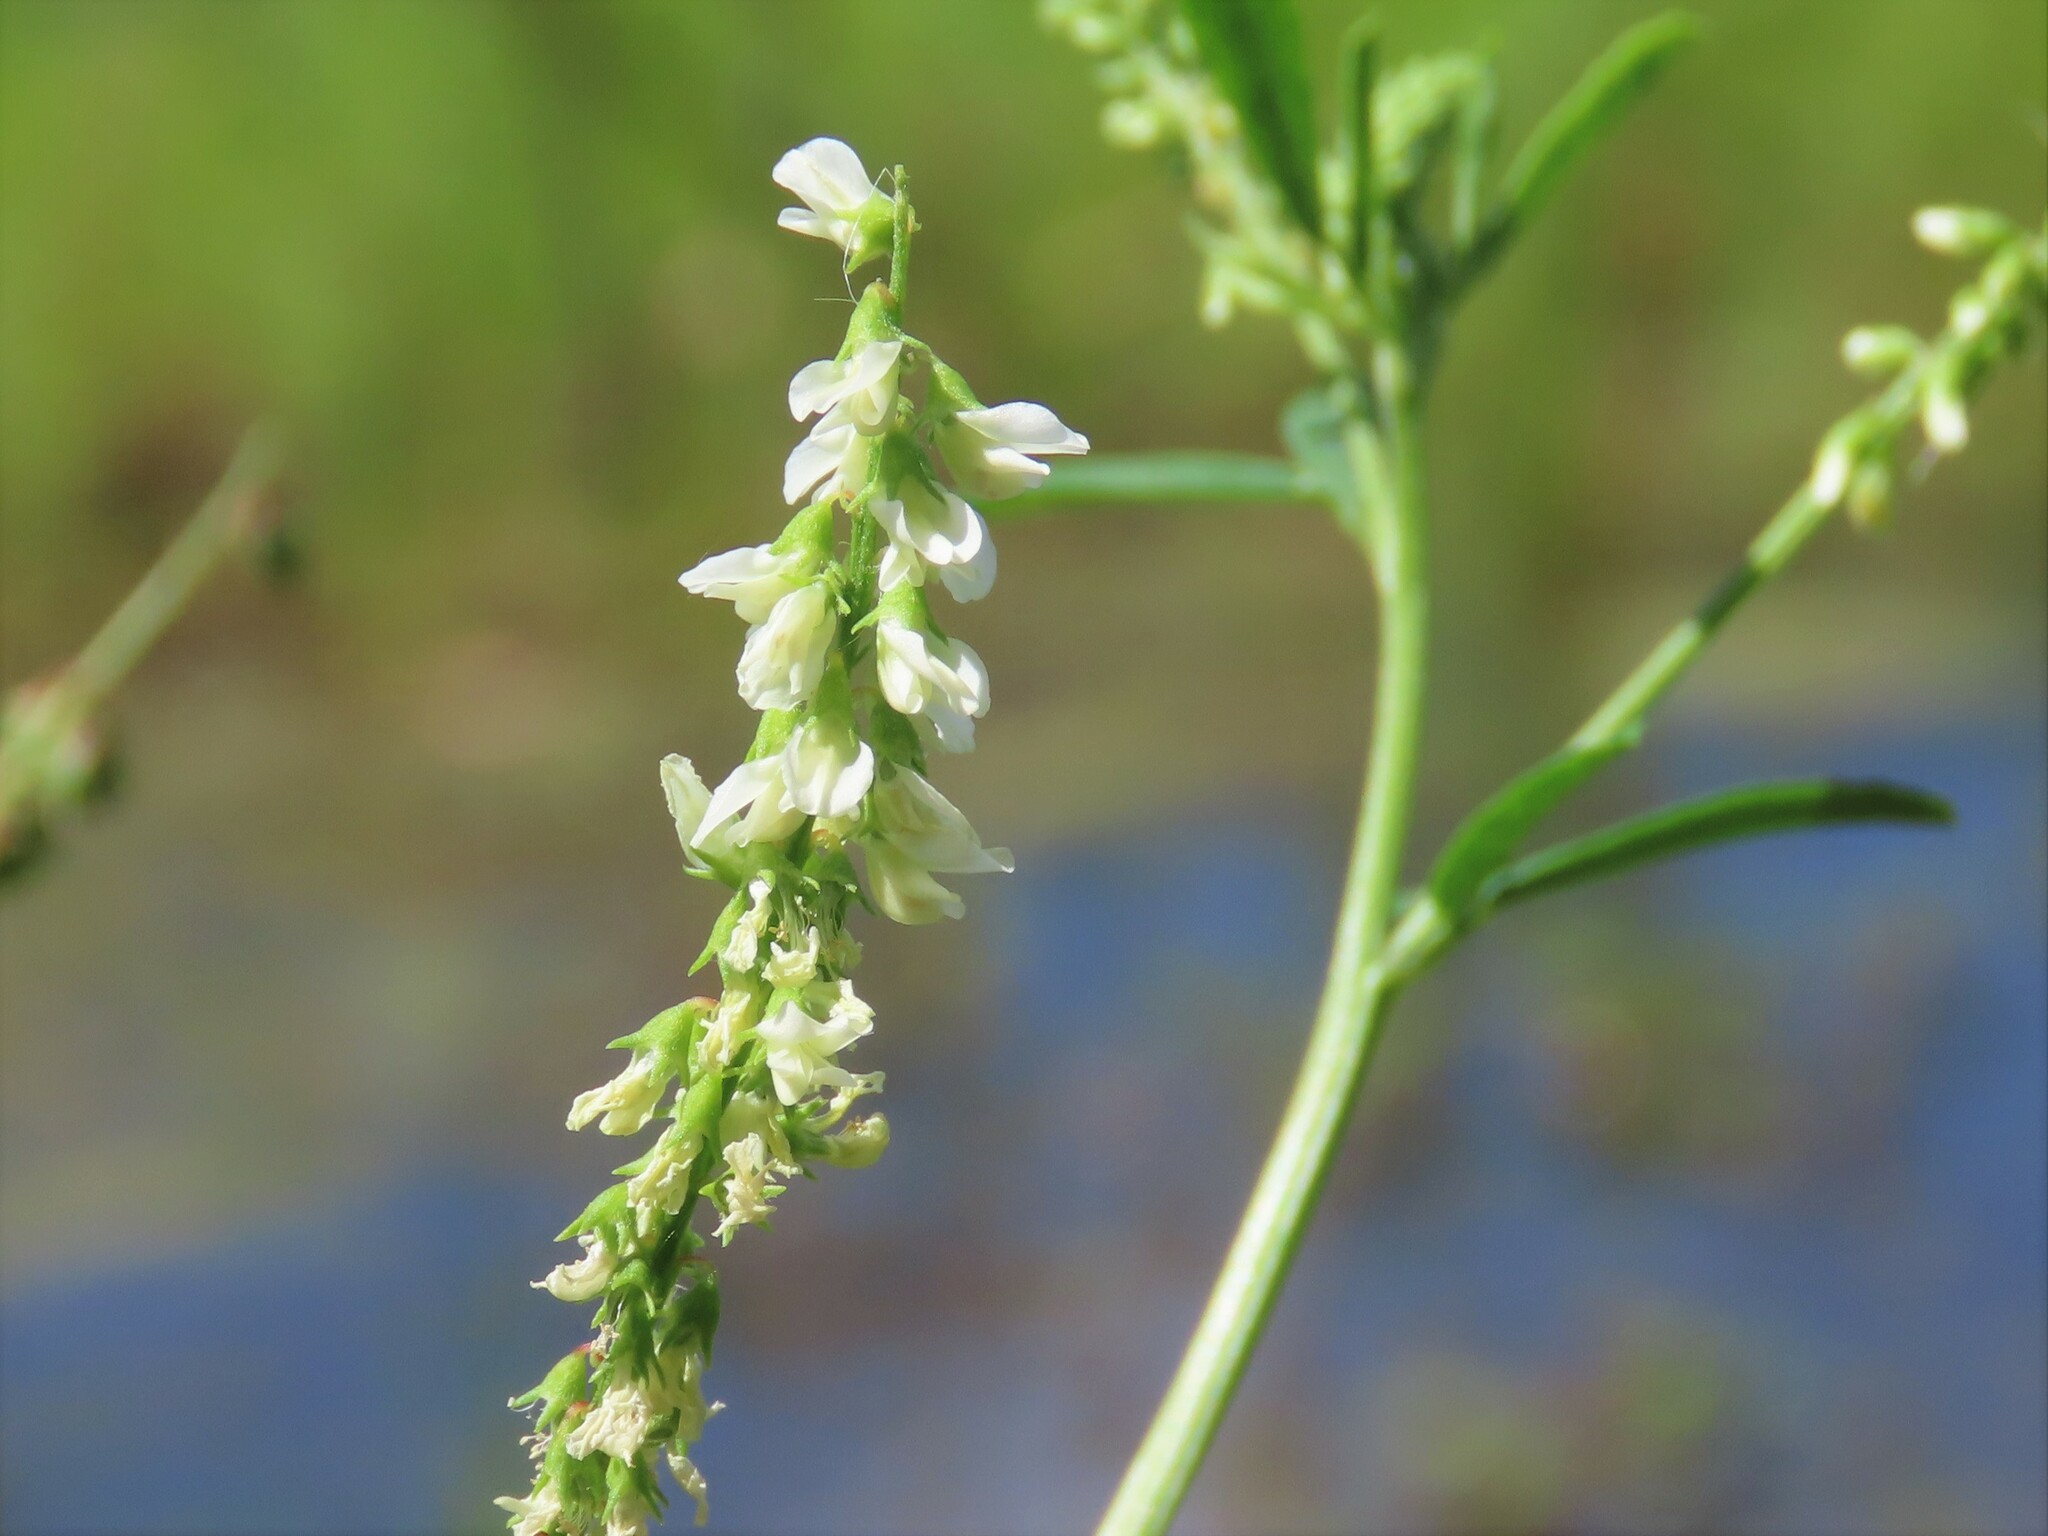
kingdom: Plantae
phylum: Tracheophyta
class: Magnoliopsida
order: Fabales
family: Fabaceae
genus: Melilotus
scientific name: Melilotus albus
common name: White melilot
